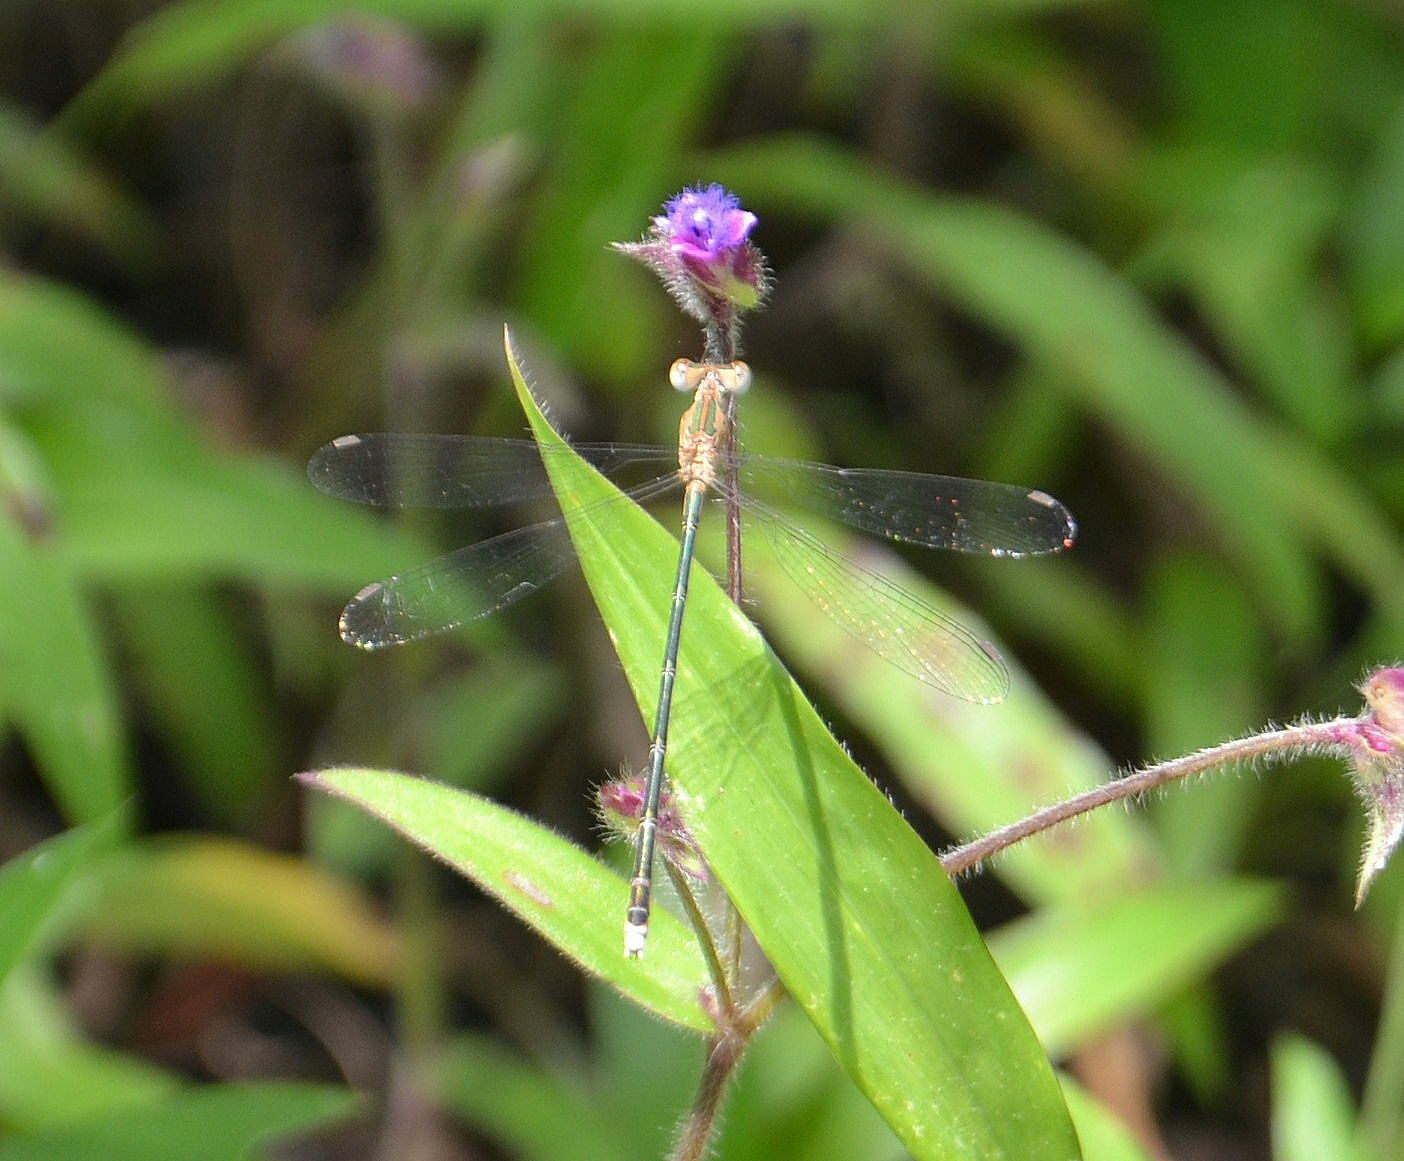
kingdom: Animalia
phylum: Arthropoda
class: Insecta
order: Odonata
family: Lestidae
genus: Lestes
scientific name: Lestes elatus
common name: Emerald spreadwing
